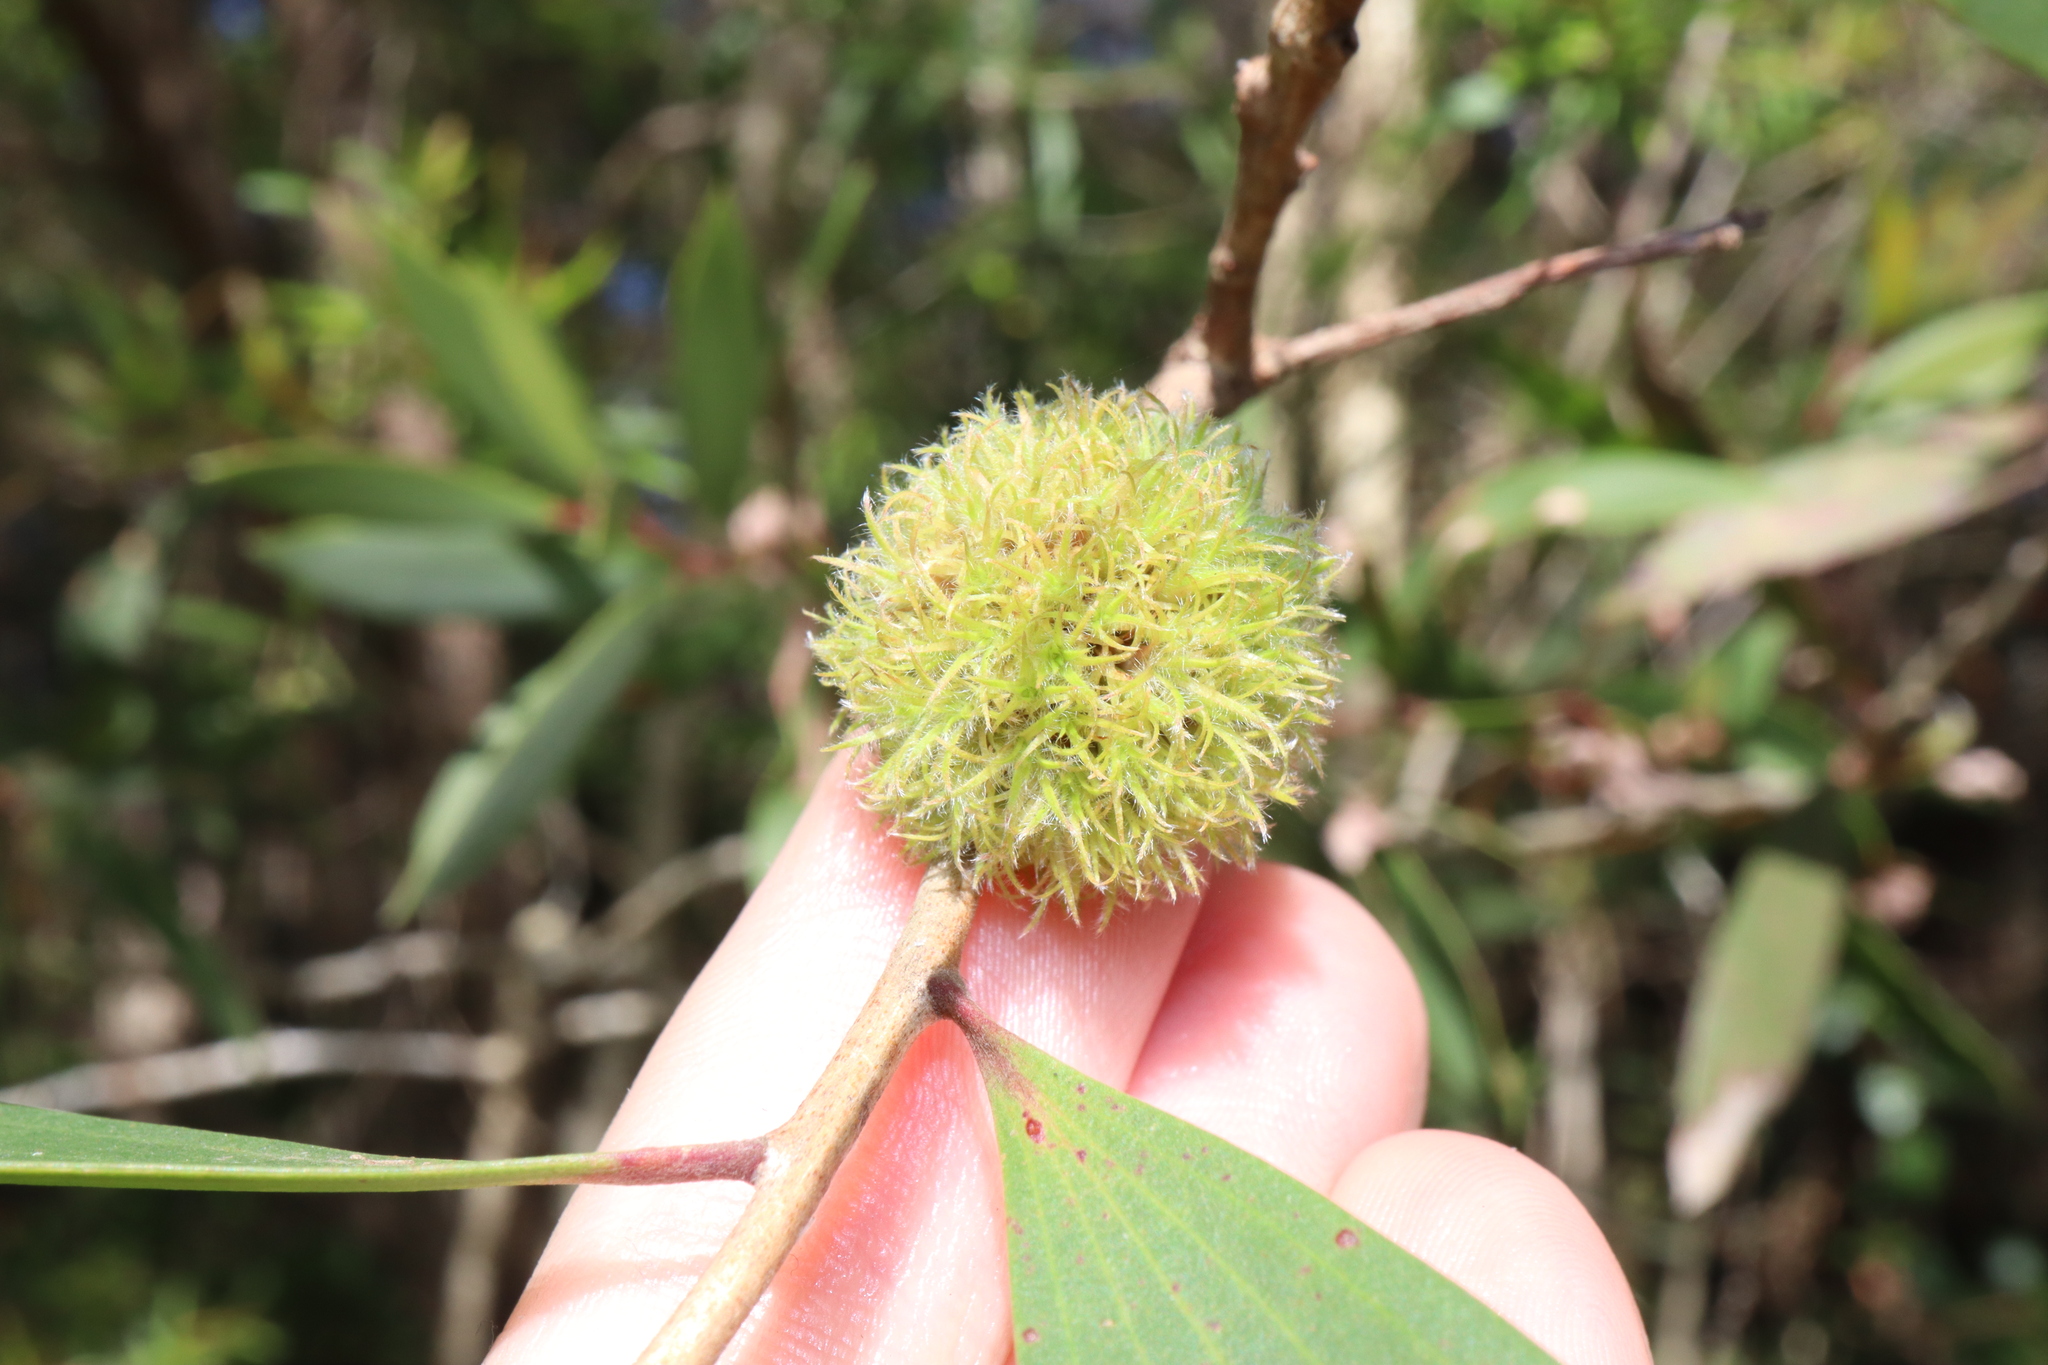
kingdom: Animalia
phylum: Arthropoda
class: Insecta
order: Hemiptera
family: Beesoniidae
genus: Beesonia
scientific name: Beesonia ferrugineus
